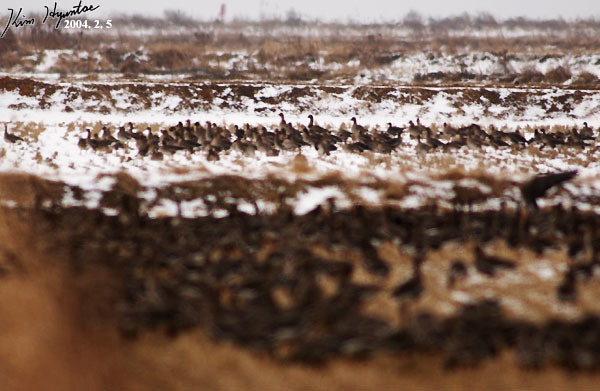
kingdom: Animalia
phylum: Chordata
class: Aves
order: Anseriformes
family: Anatidae
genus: Anser
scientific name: Anser albifrons
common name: Greater white-fronted goose
